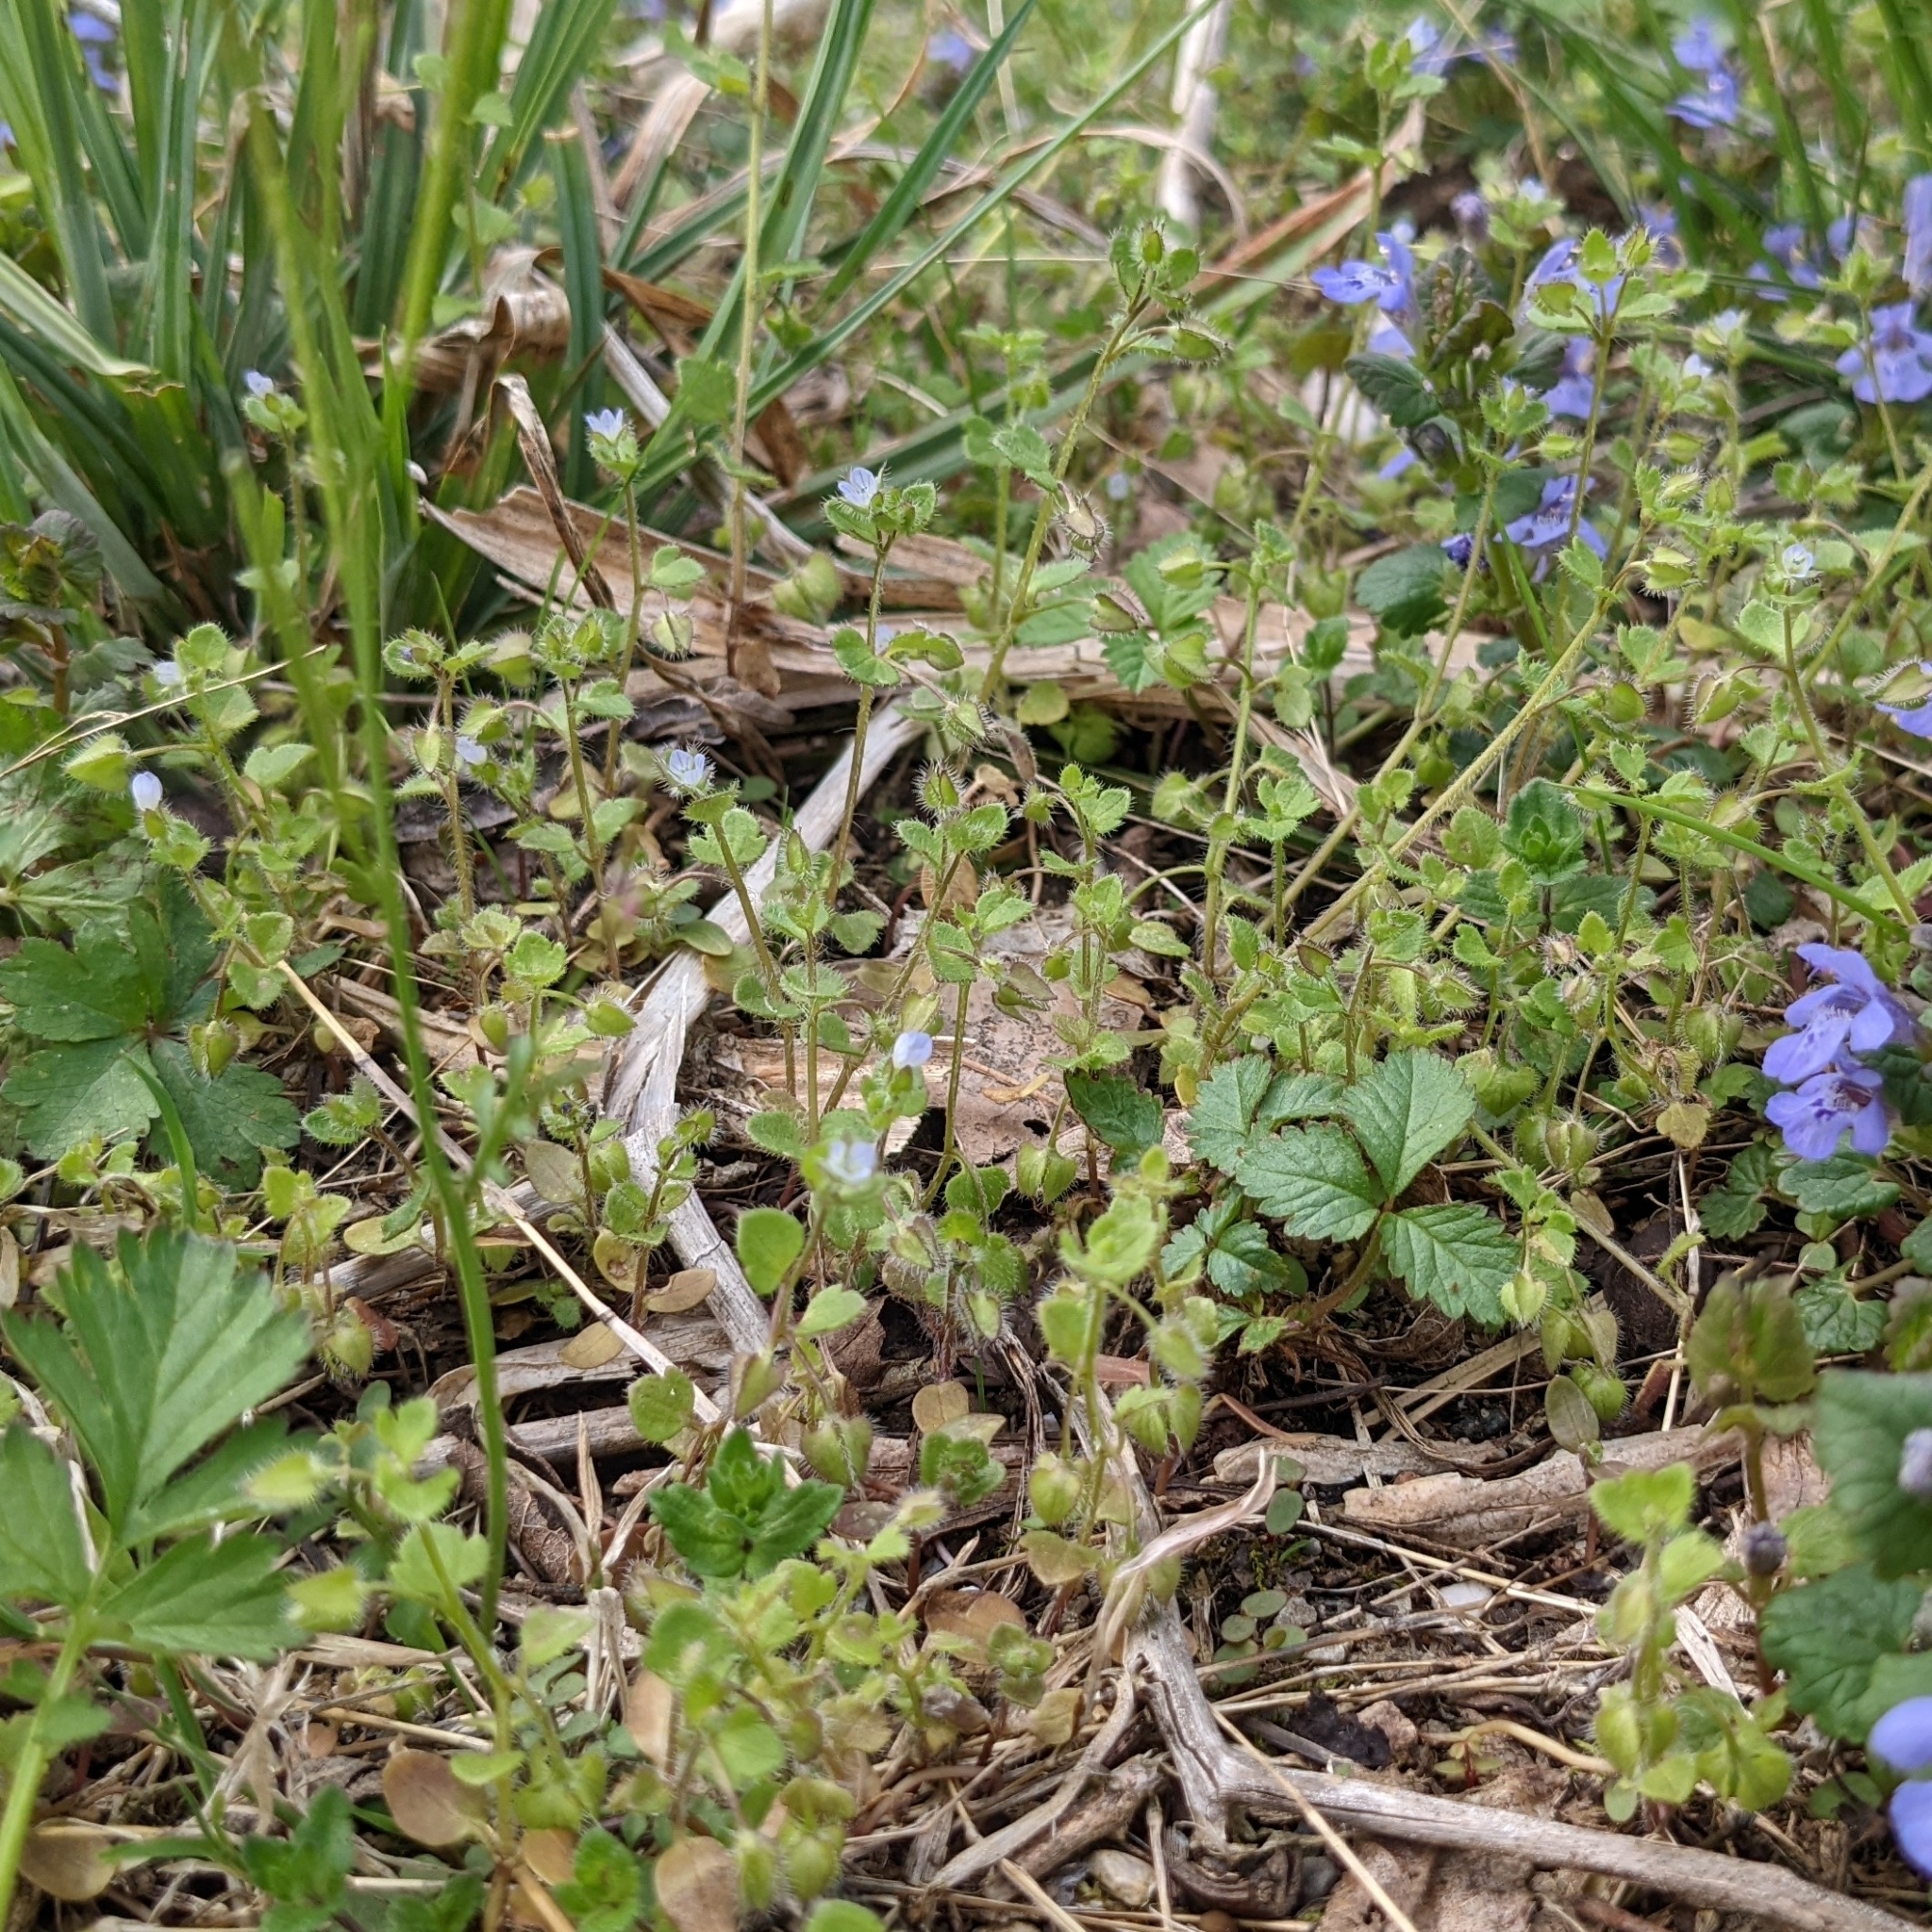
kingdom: Plantae
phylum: Tracheophyta
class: Magnoliopsida
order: Lamiales
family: Plantaginaceae
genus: Veronica
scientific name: Veronica hederifolia
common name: Ivy-leaved speedwell
